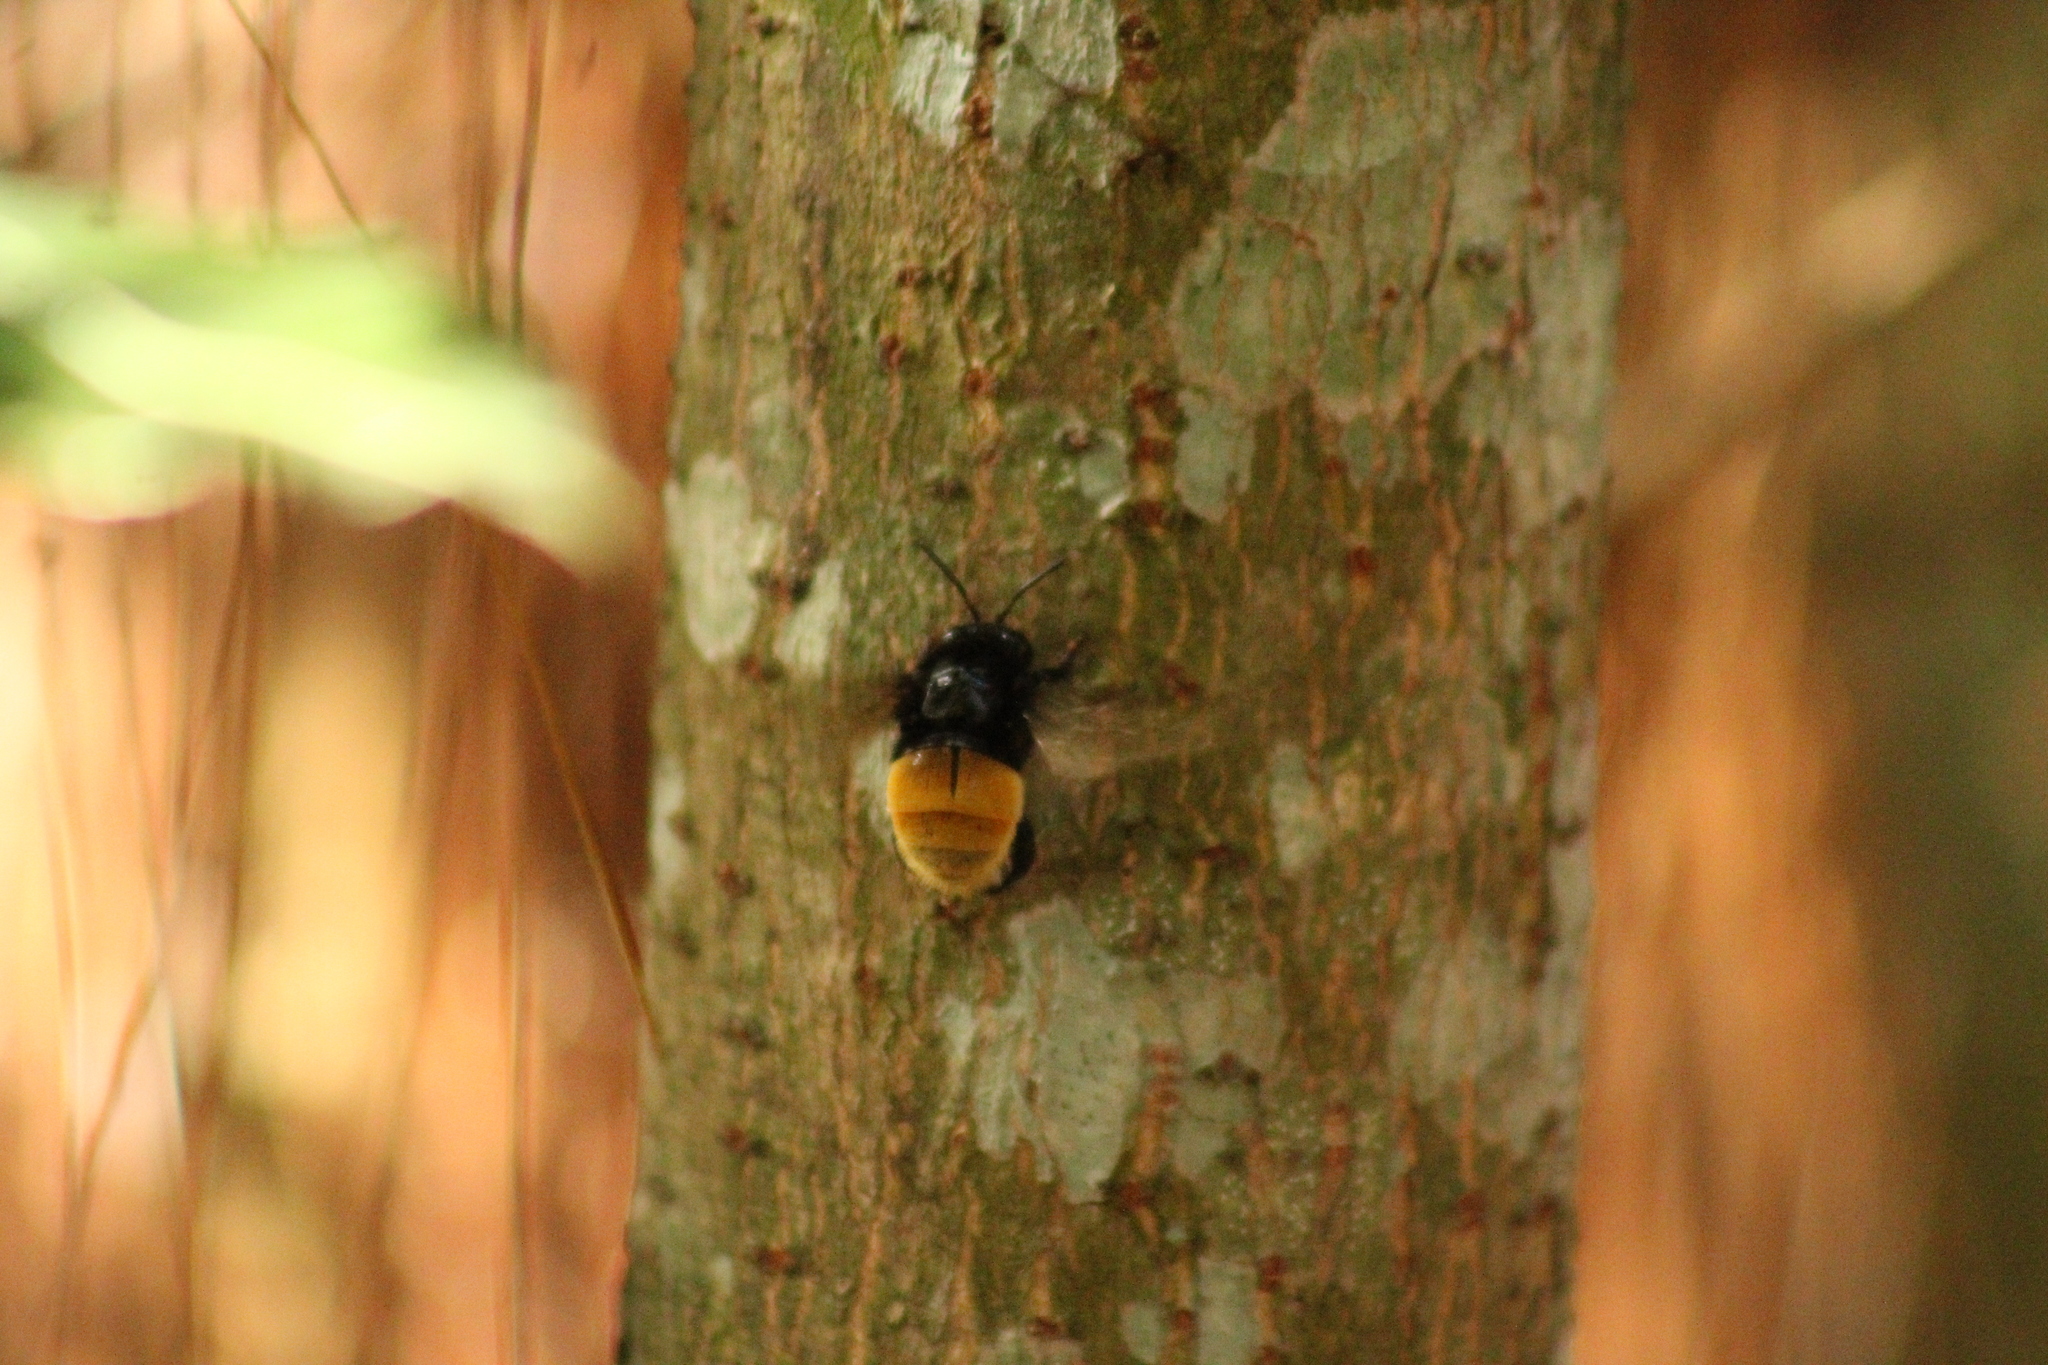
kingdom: Animalia
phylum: Arthropoda
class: Insecta
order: Hymenoptera
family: Apidae
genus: Eulaema
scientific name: Eulaema polychroma
